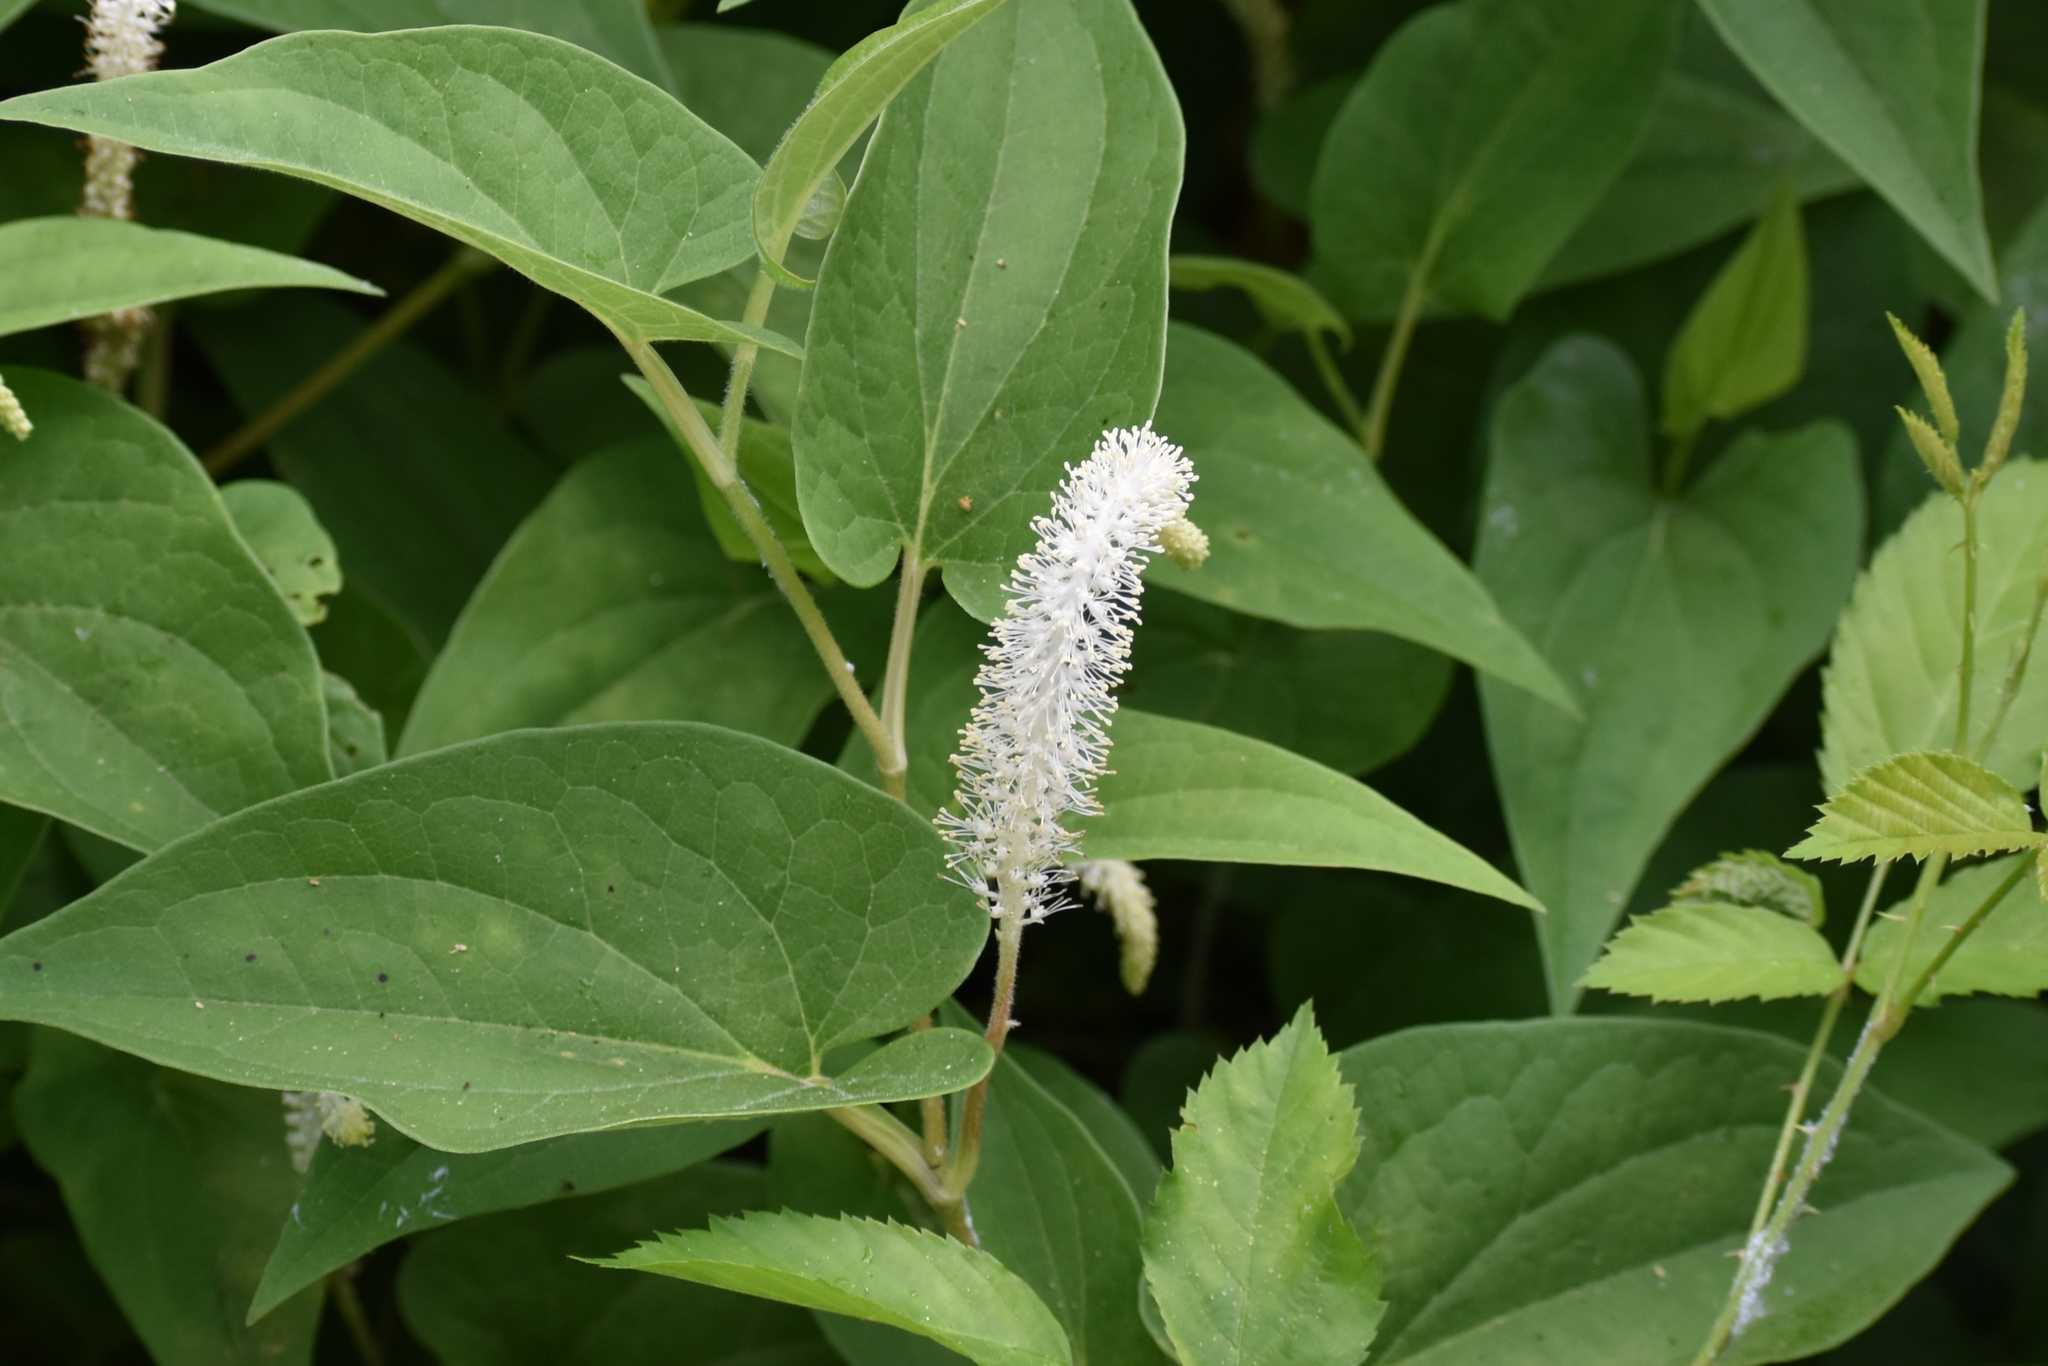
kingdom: Plantae
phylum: Tracheophyta
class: Magnoliopsida
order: Piperales
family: Saururaceae
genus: Saururus
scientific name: Saururus cernuus
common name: Lizard's-tail
